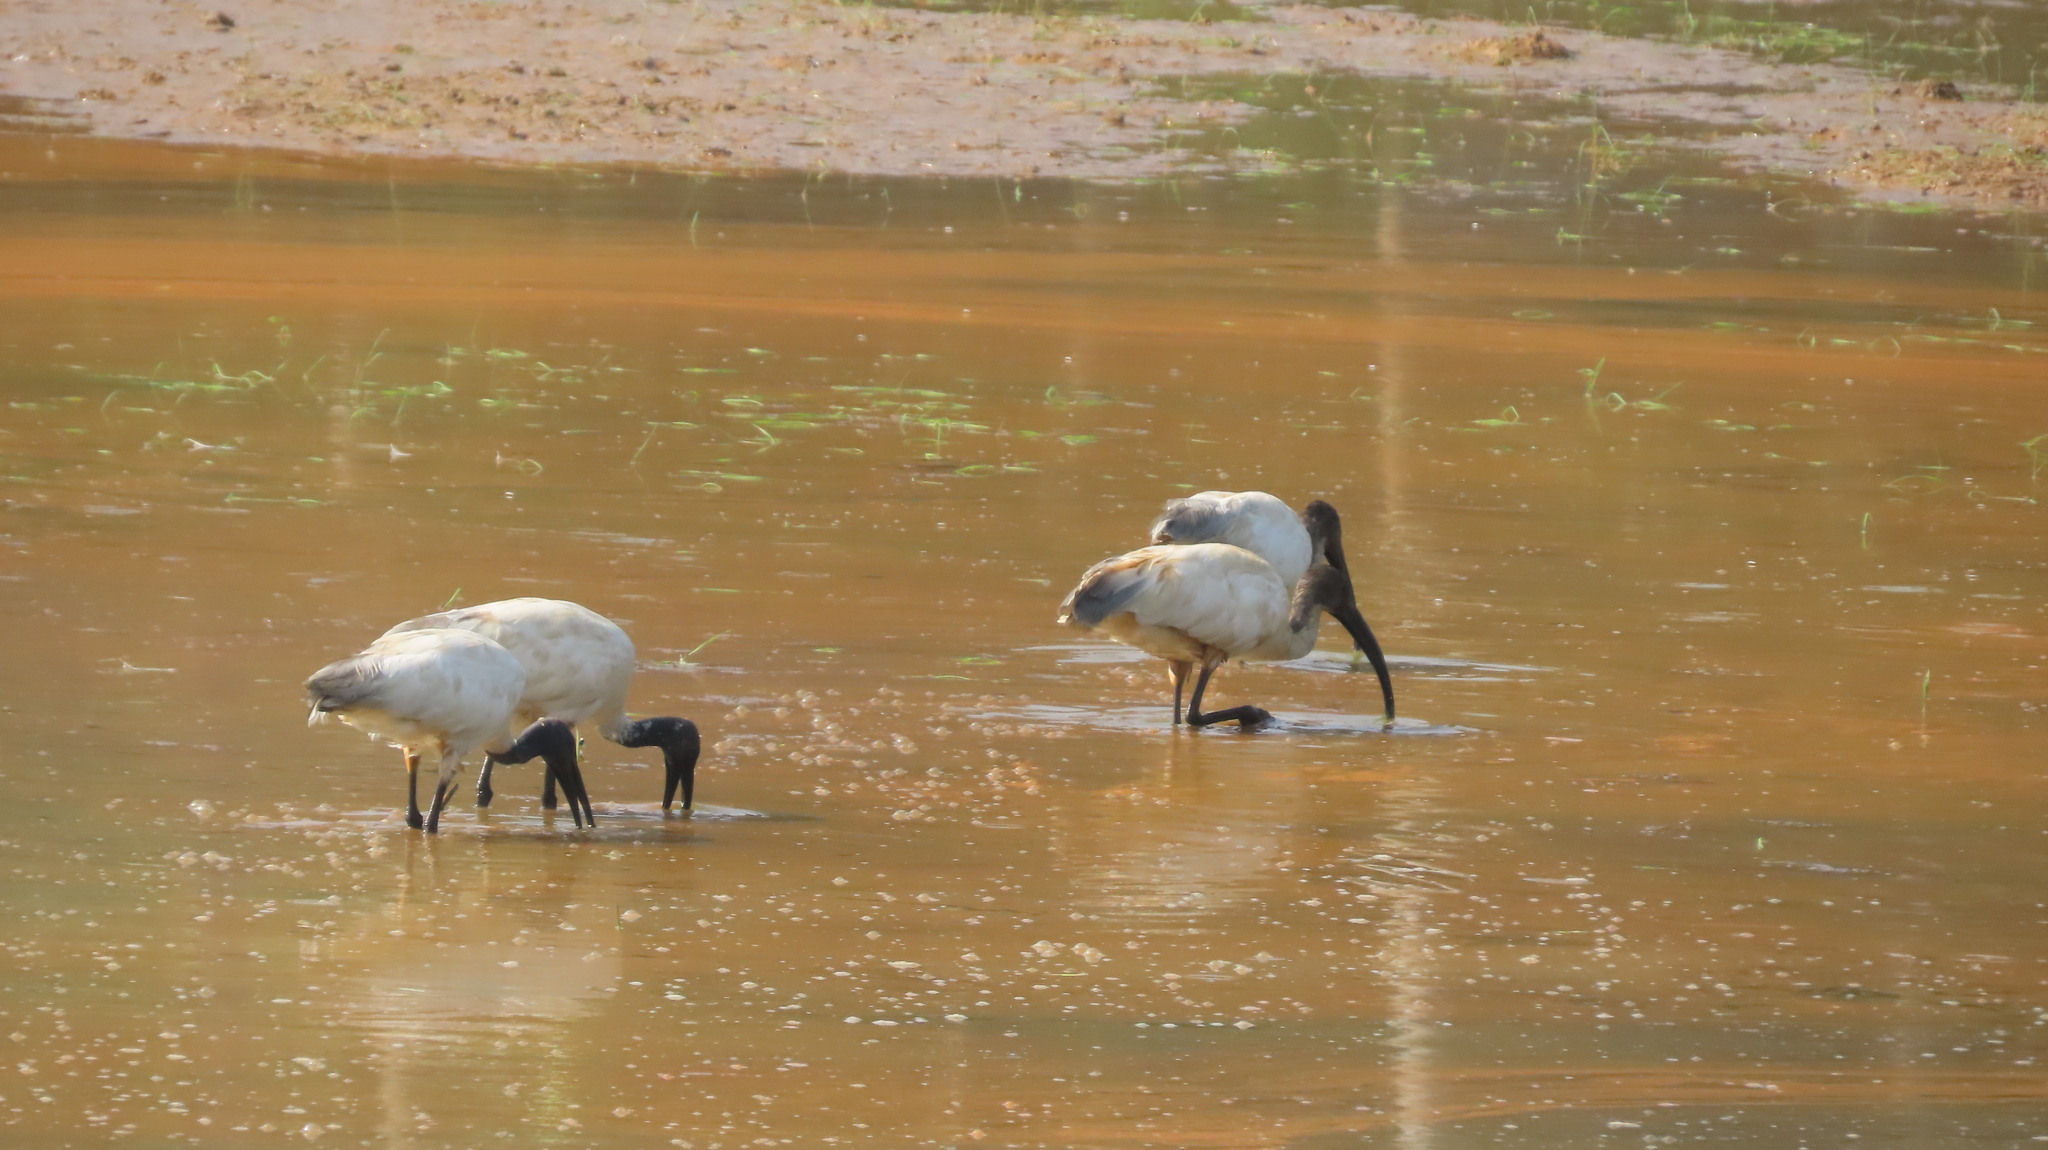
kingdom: Animalia
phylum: Chordata
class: Aves
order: Pelecaniformes
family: Threskiornithidae
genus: Threskiornis
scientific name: Threskiornis melanocephalus
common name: Black-headed ibis
